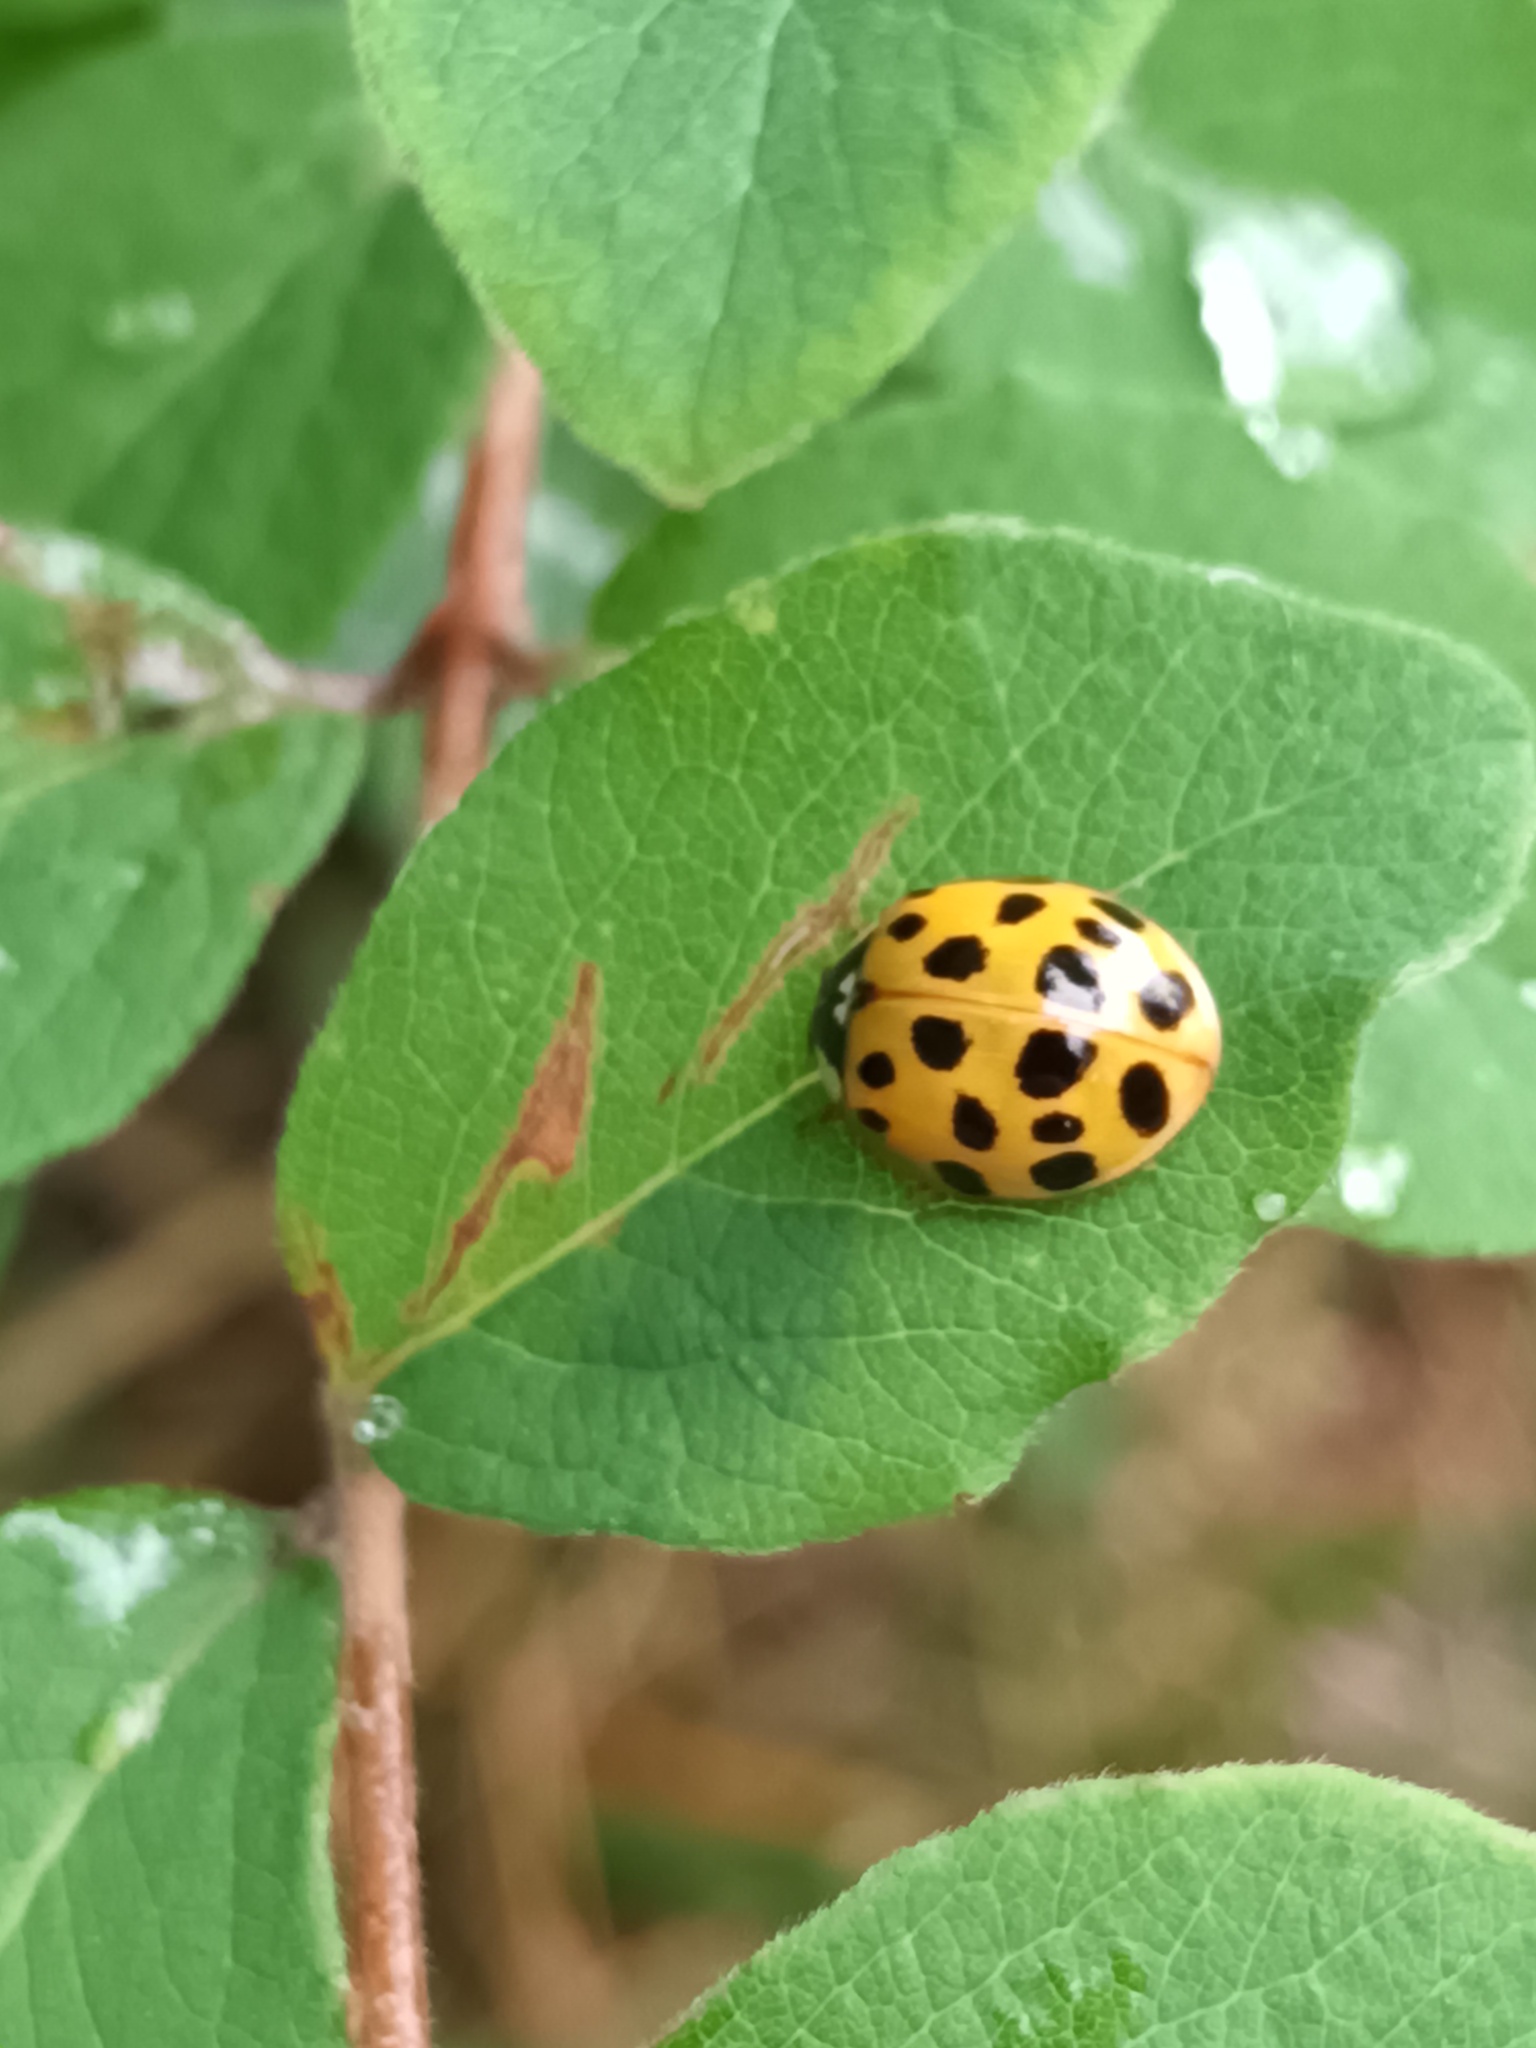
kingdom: Animalia
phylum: Arthropoda
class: Insecta
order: Coleoptera
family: Coccinellidae
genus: Harmonia
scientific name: Harmonia axyridis
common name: Harlequin ladybird
